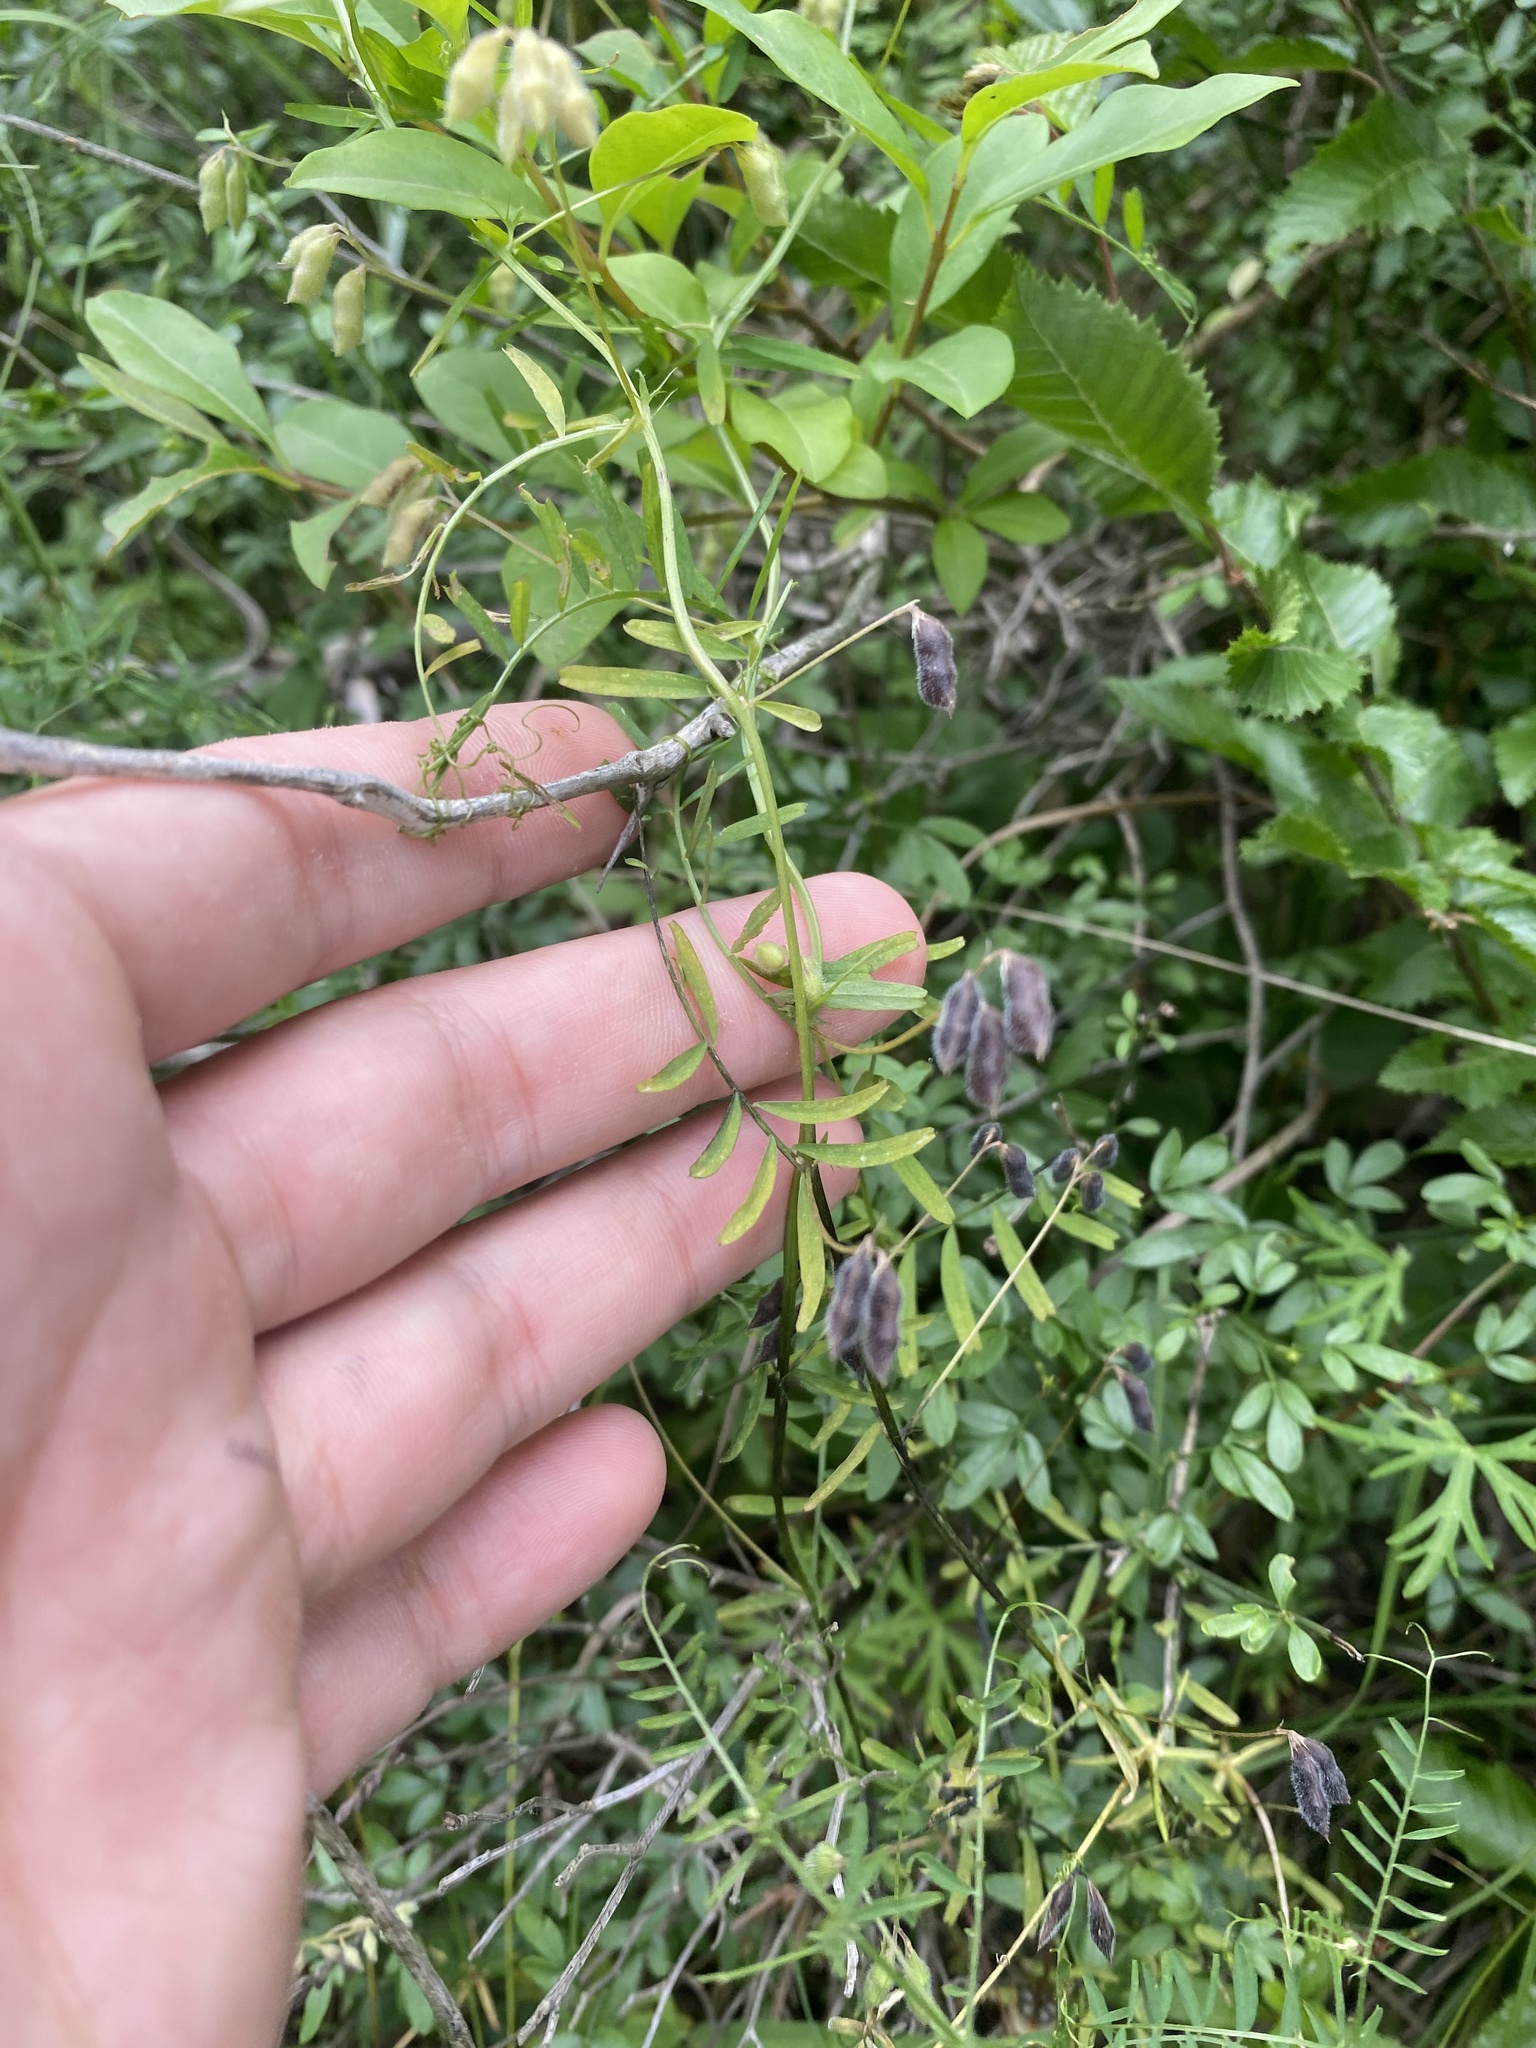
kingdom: Plantae
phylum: Tracheophyta
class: Magnoliopsida
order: Fabales
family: Fabaceae
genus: Vicia
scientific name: Vicia hirsuta
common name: Tiny vetch
